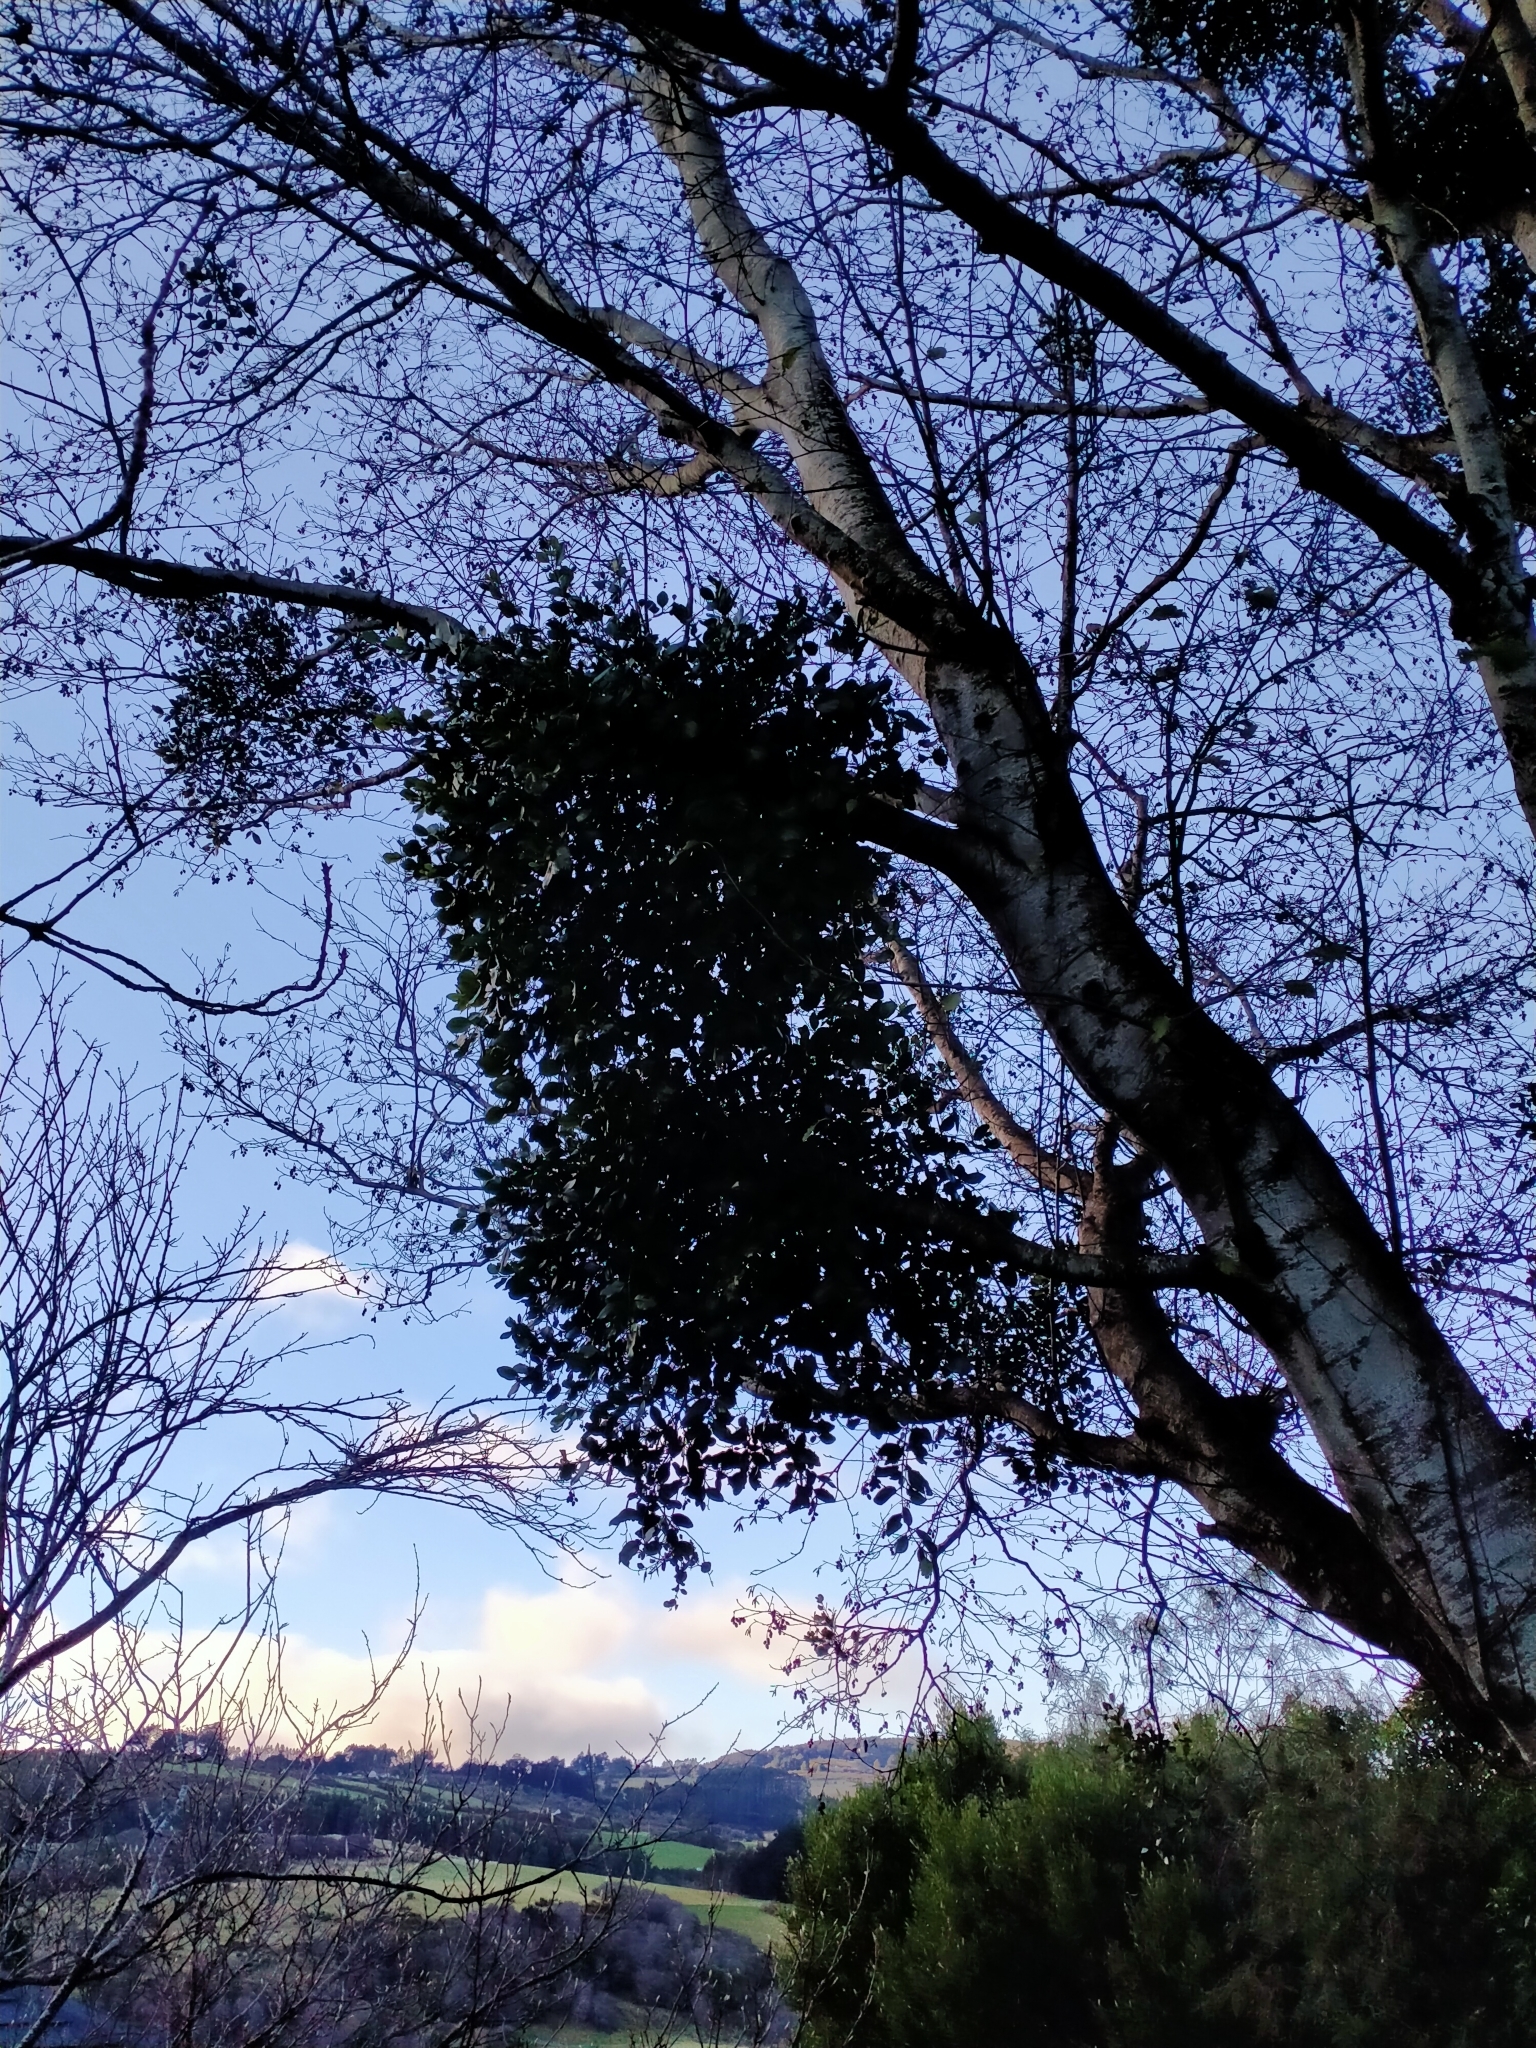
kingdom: Plantae
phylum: Tracheophyta
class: Magnoliopsida
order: Santalales
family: Loranthaceae
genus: Ileostylus
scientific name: Ileostylus micranthus
